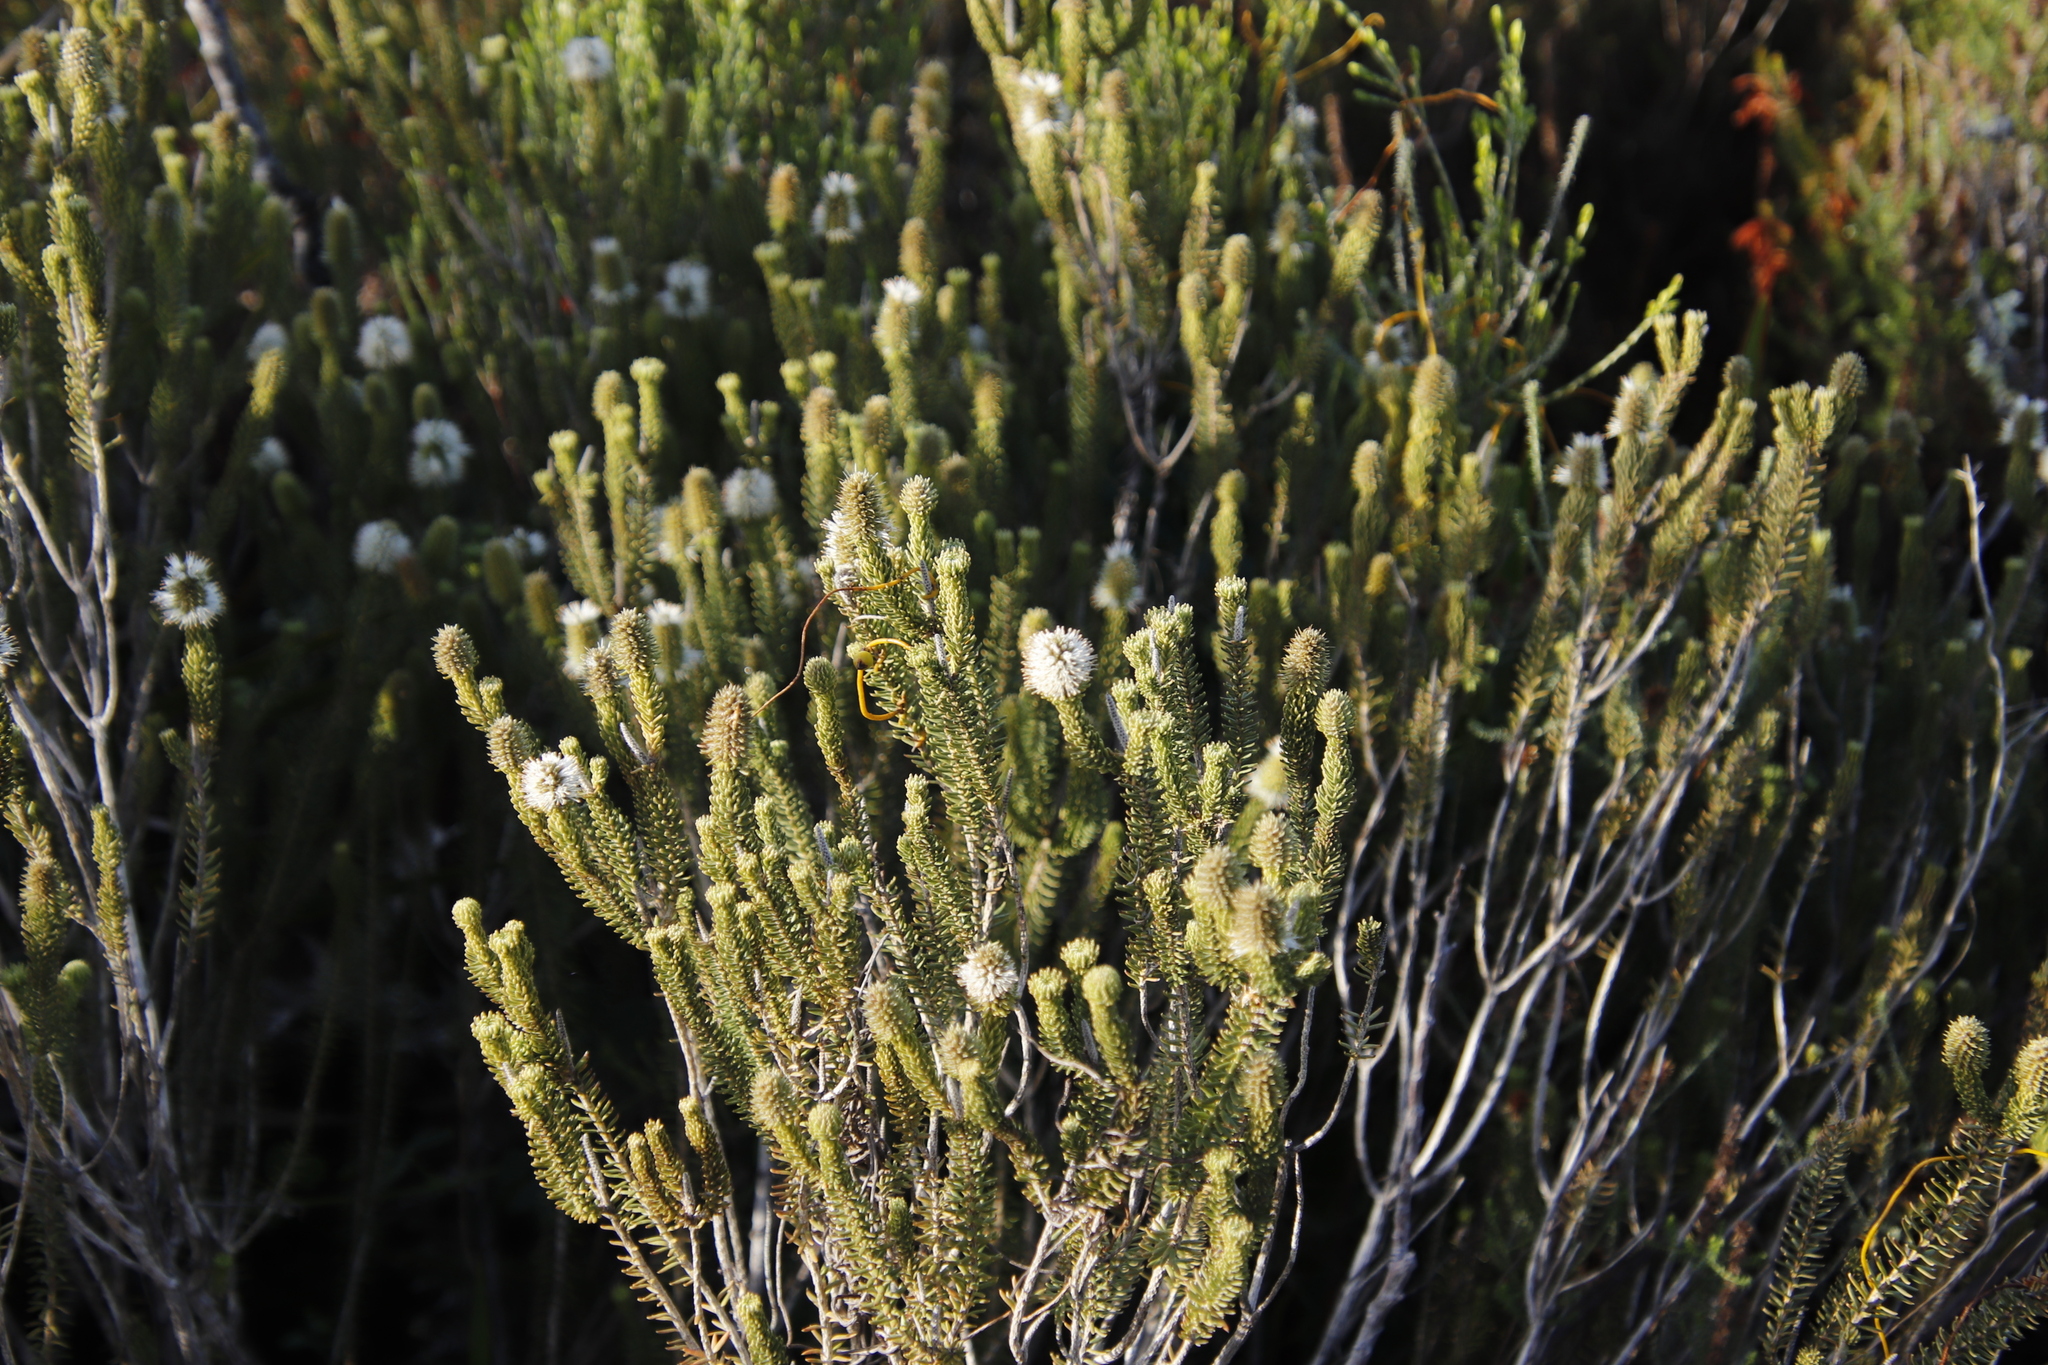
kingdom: Plantae
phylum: Tracheophyta
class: Magnoliopsida
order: Lamiales
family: Stilbaceae
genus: Stilbe
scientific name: Stilbe vestita
